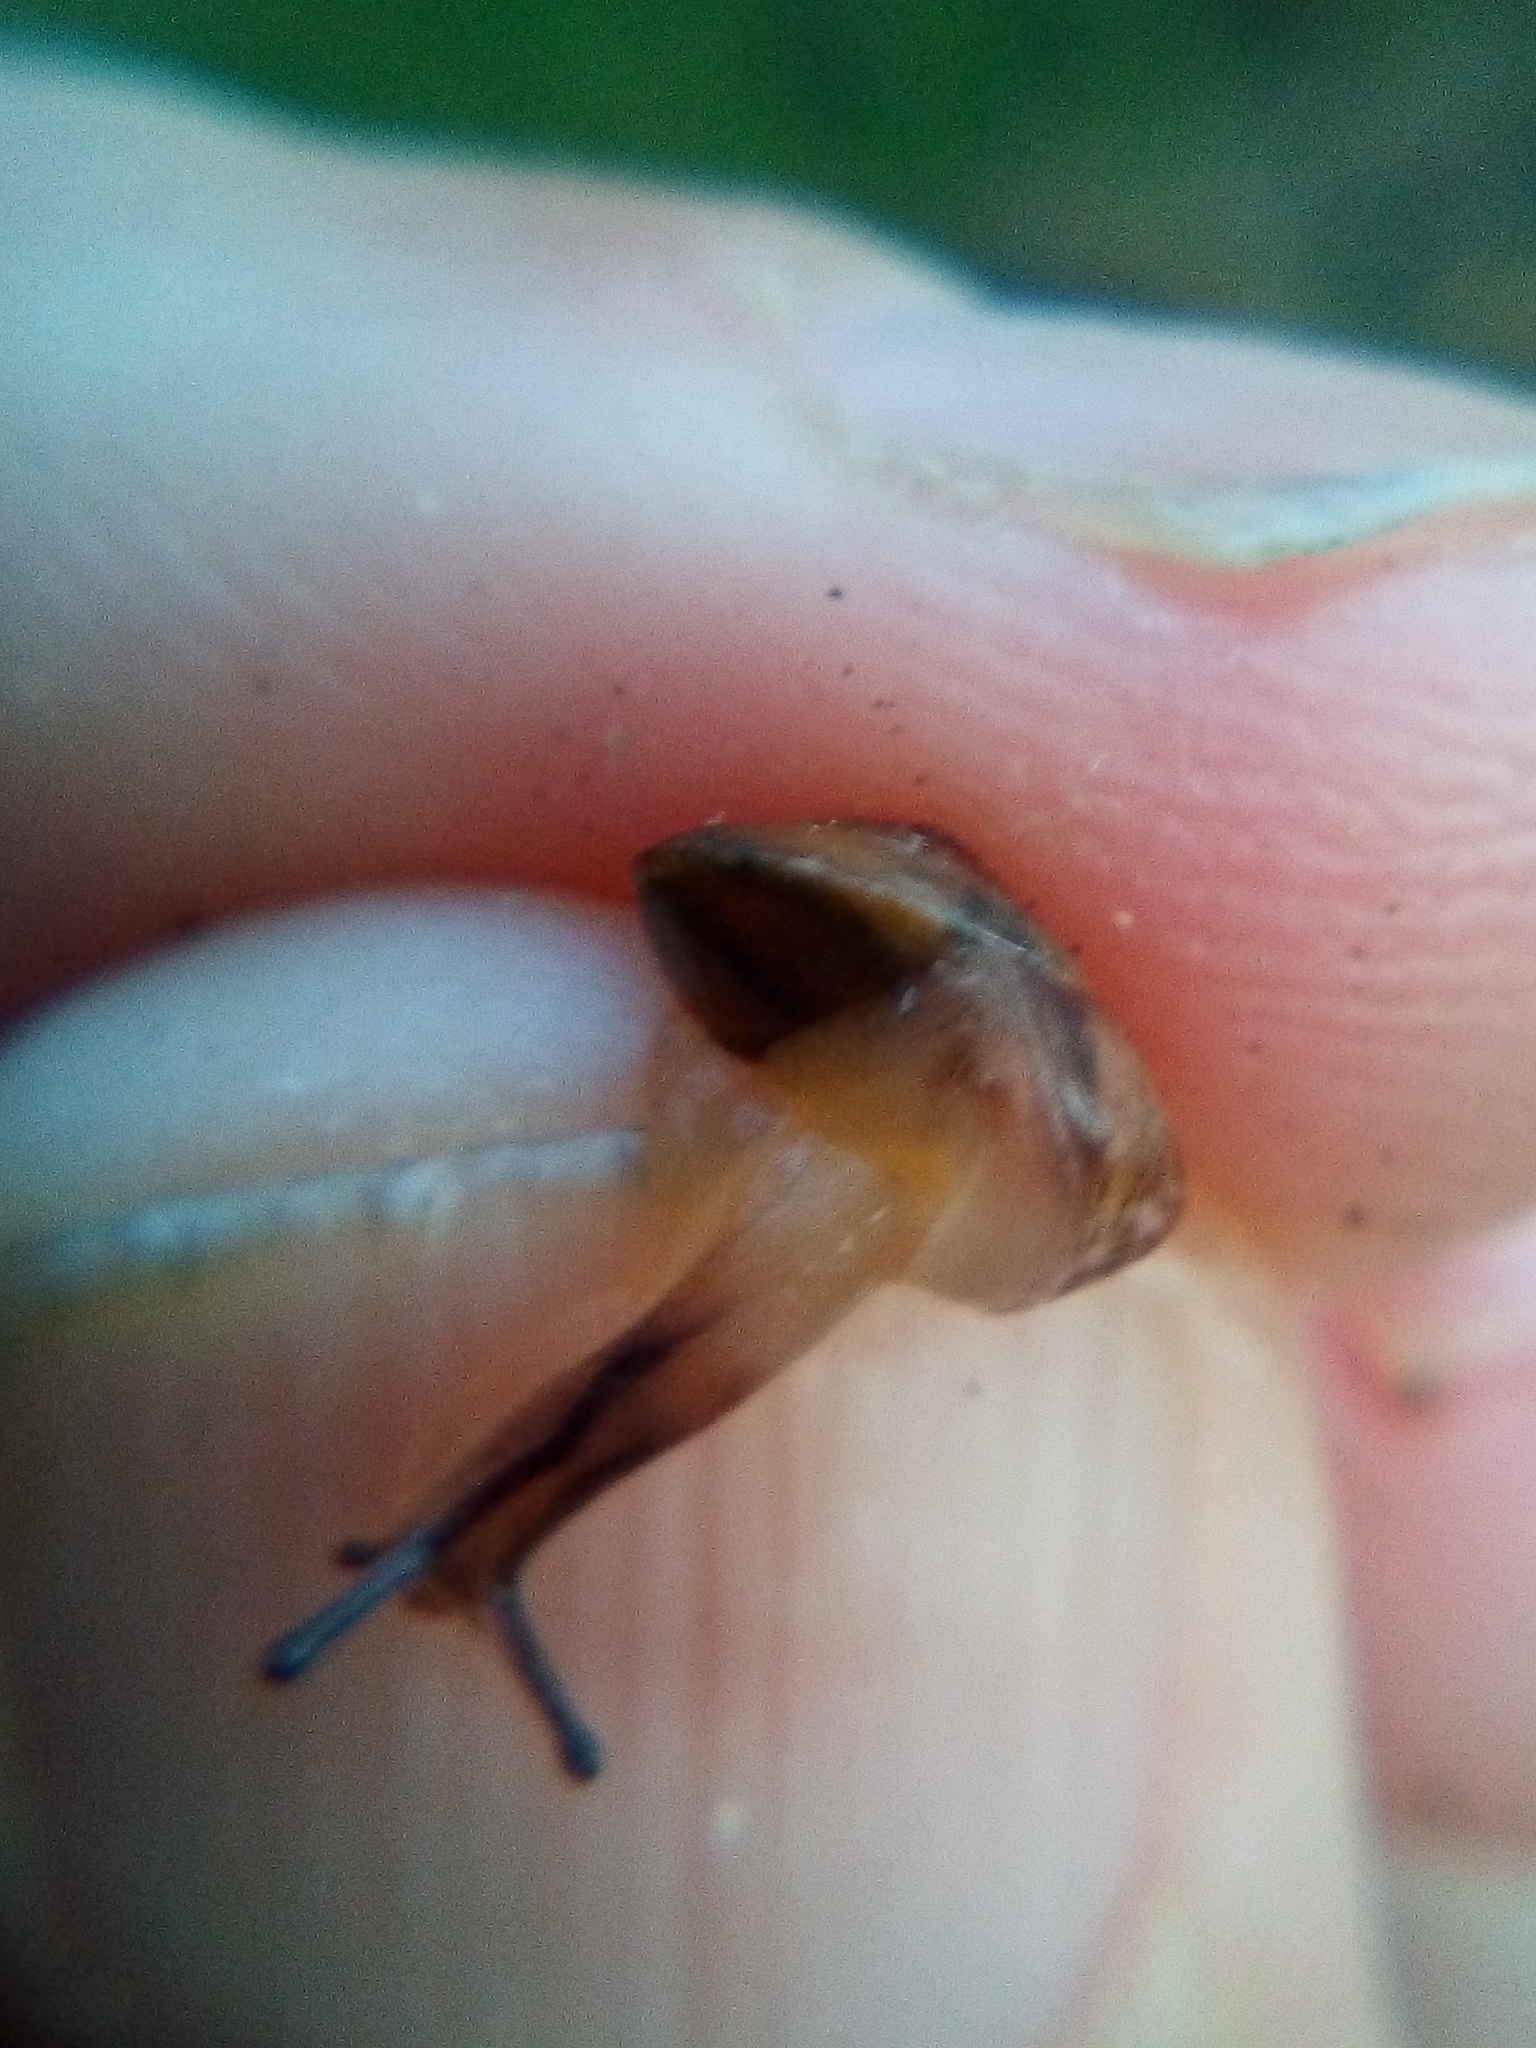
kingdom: Animalia
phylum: Mollusca
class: Gastropoda
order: Stylommatophora
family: Hygromiidae
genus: Hygromia
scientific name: Hygromia cinctella
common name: Girdled snail
